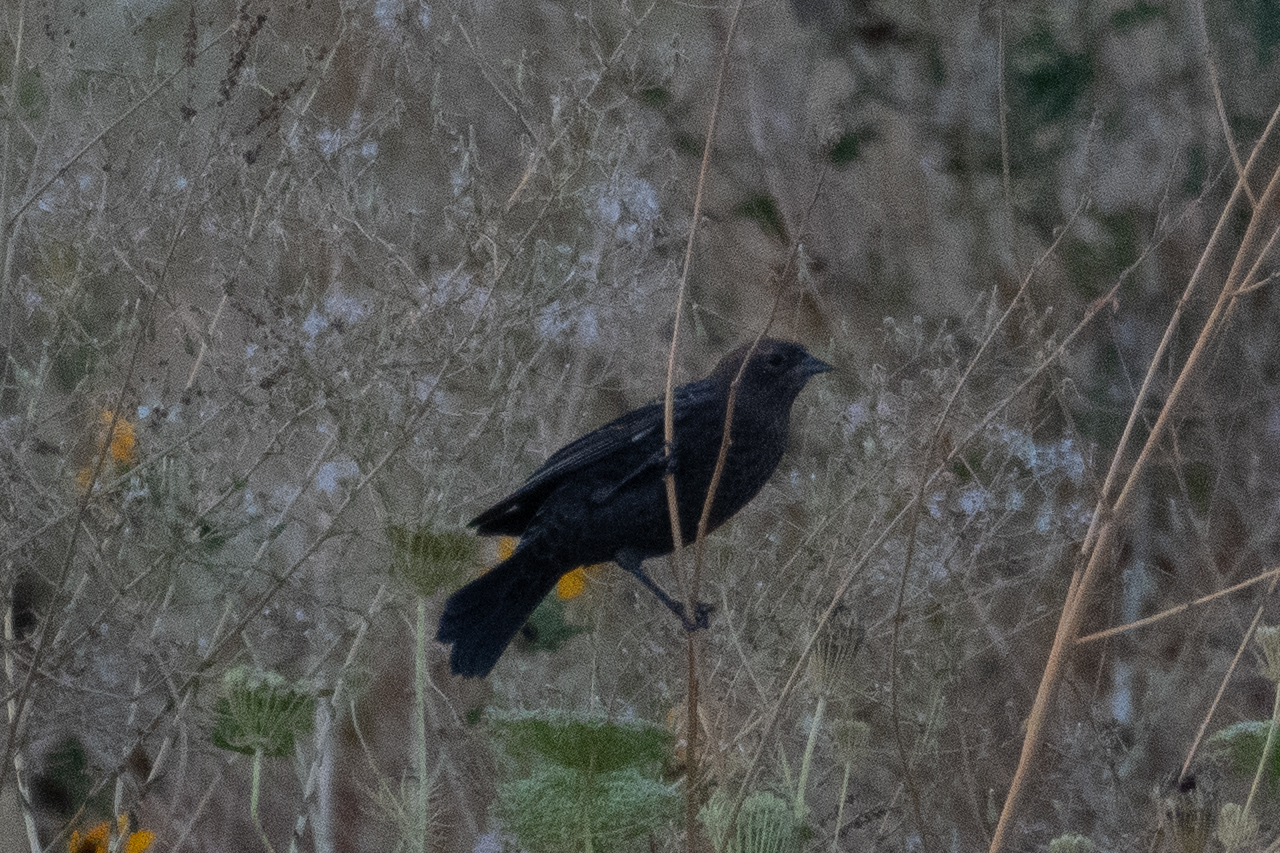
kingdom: Animalia
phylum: Chordata
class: Aves
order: Passeriformes
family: Icteridae
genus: Agelaius
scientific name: Agelaius phoeniceus
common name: Red-winged blackbird
